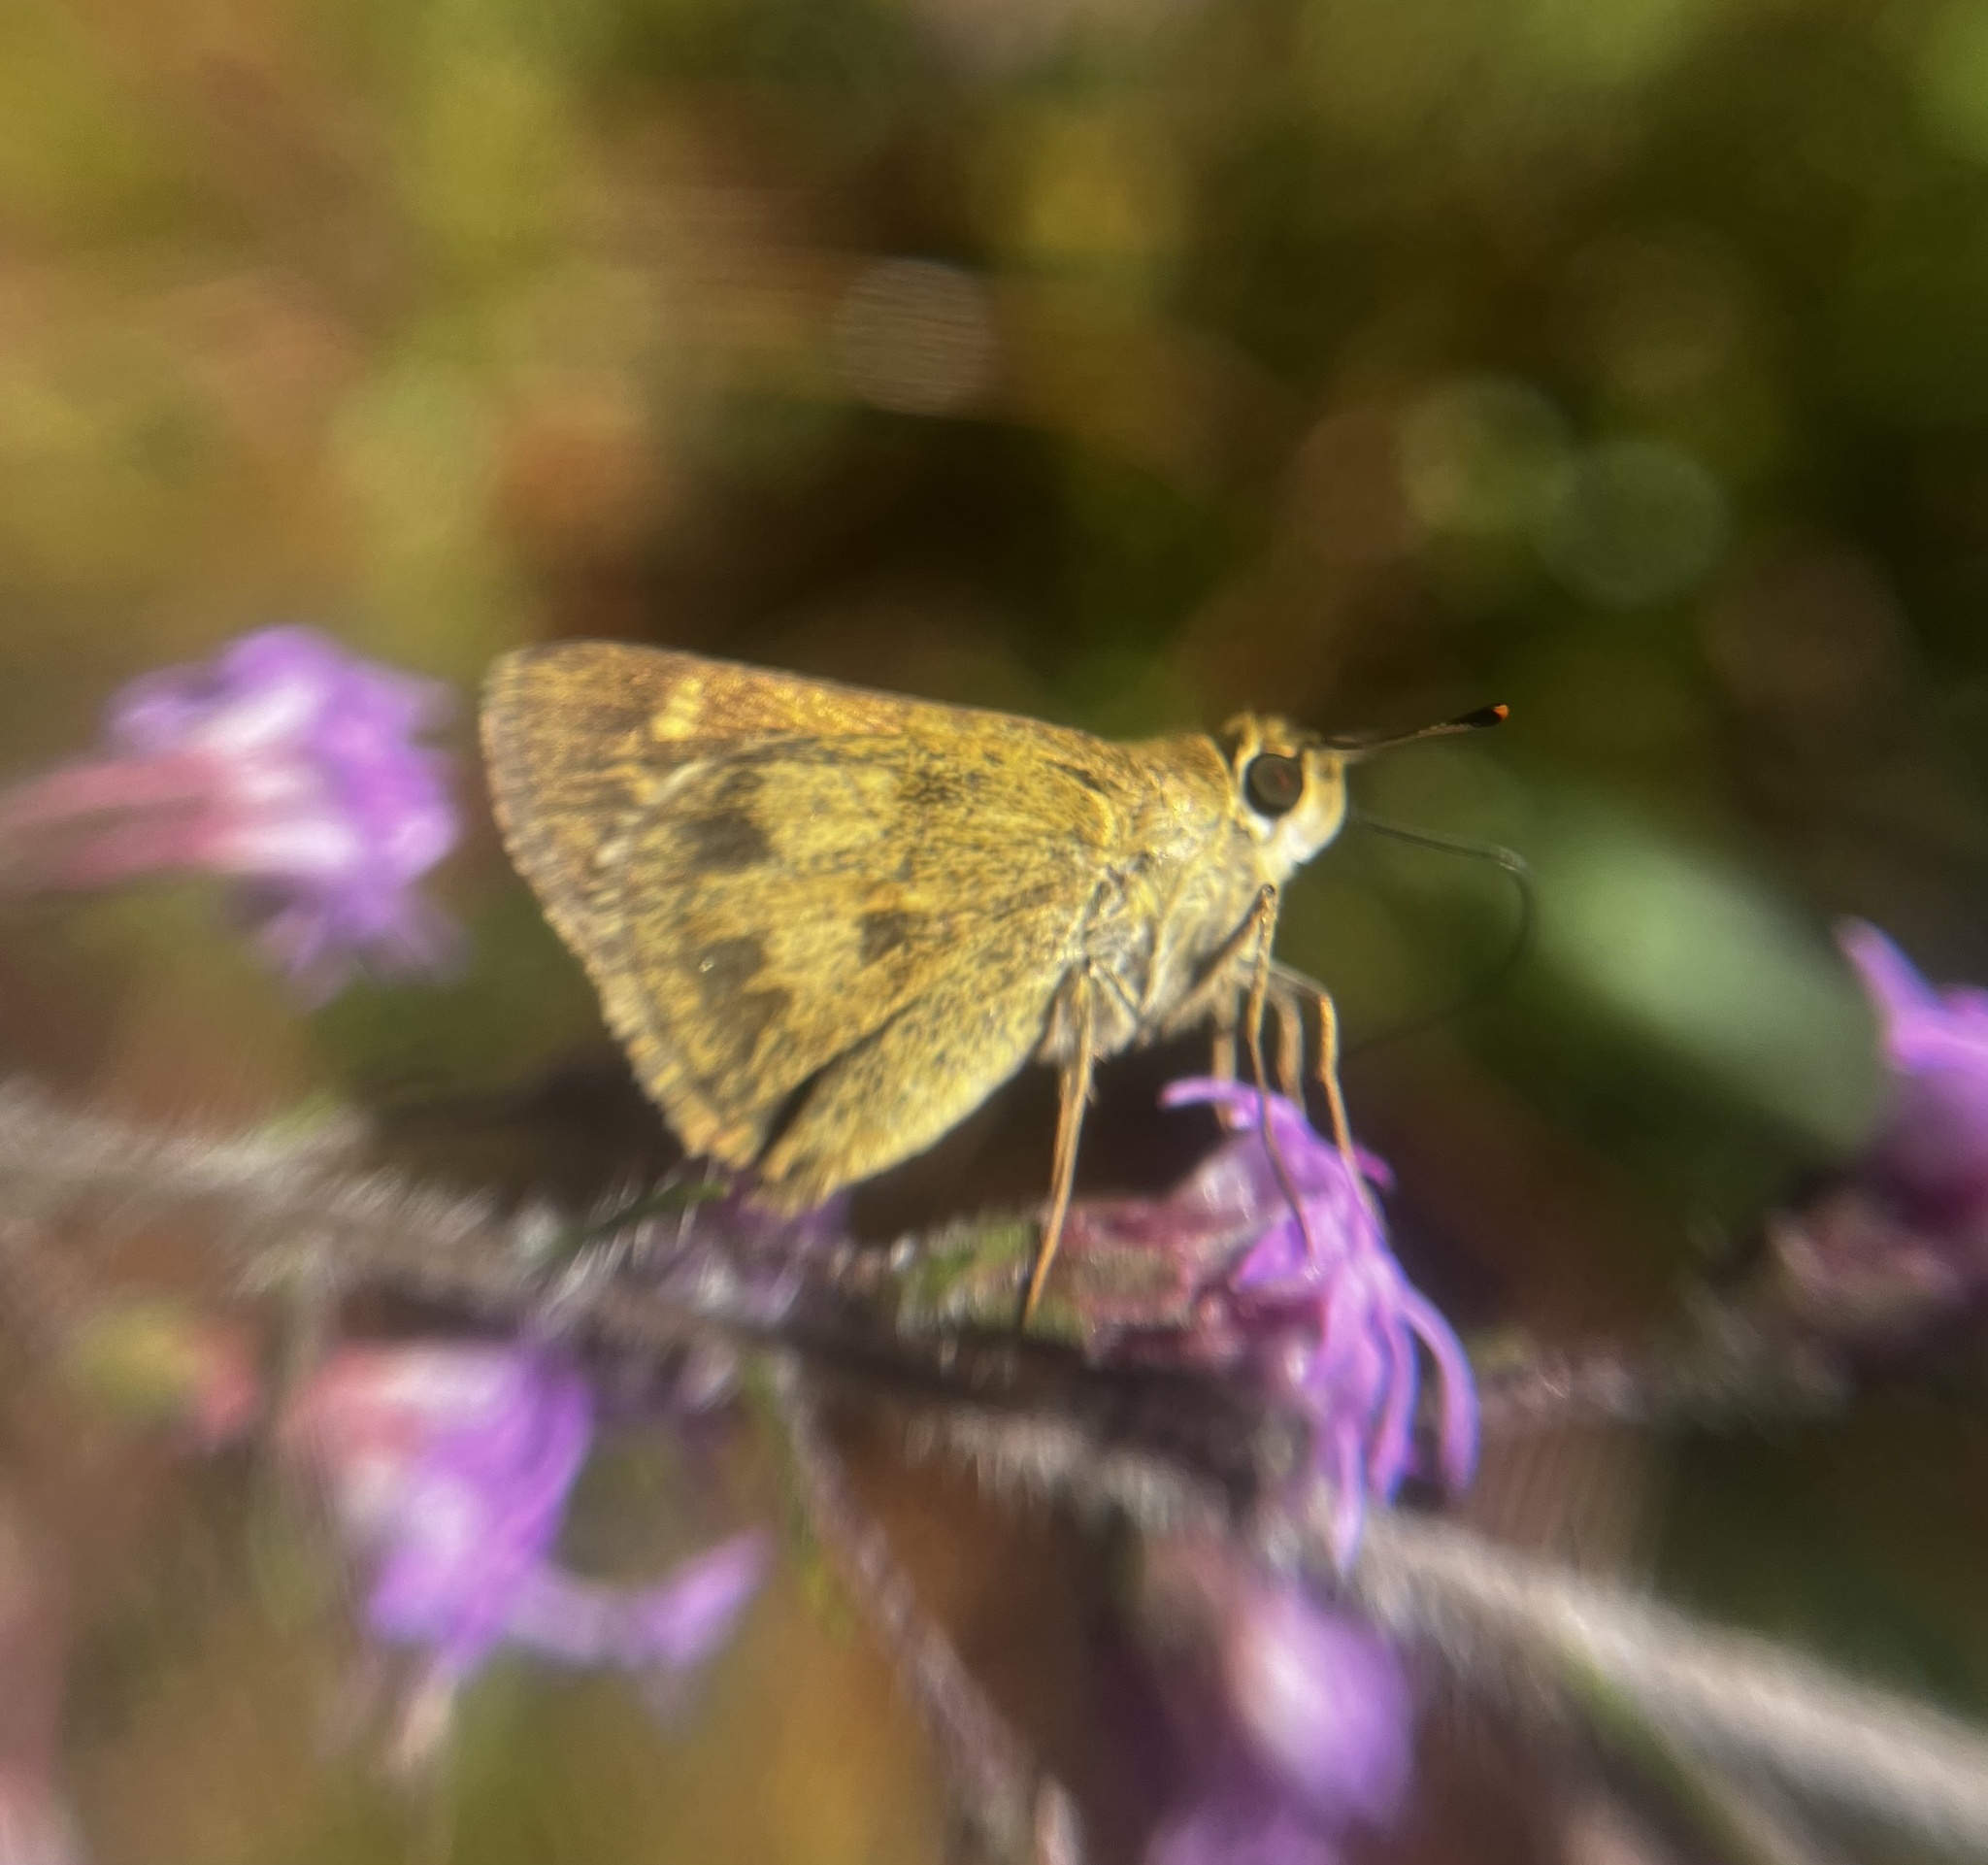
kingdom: Animalia
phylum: Arthropoda
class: Insecta
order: Lepidoptera
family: Hesperiidae
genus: Polites
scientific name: Polites vibex
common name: Whirlabout
